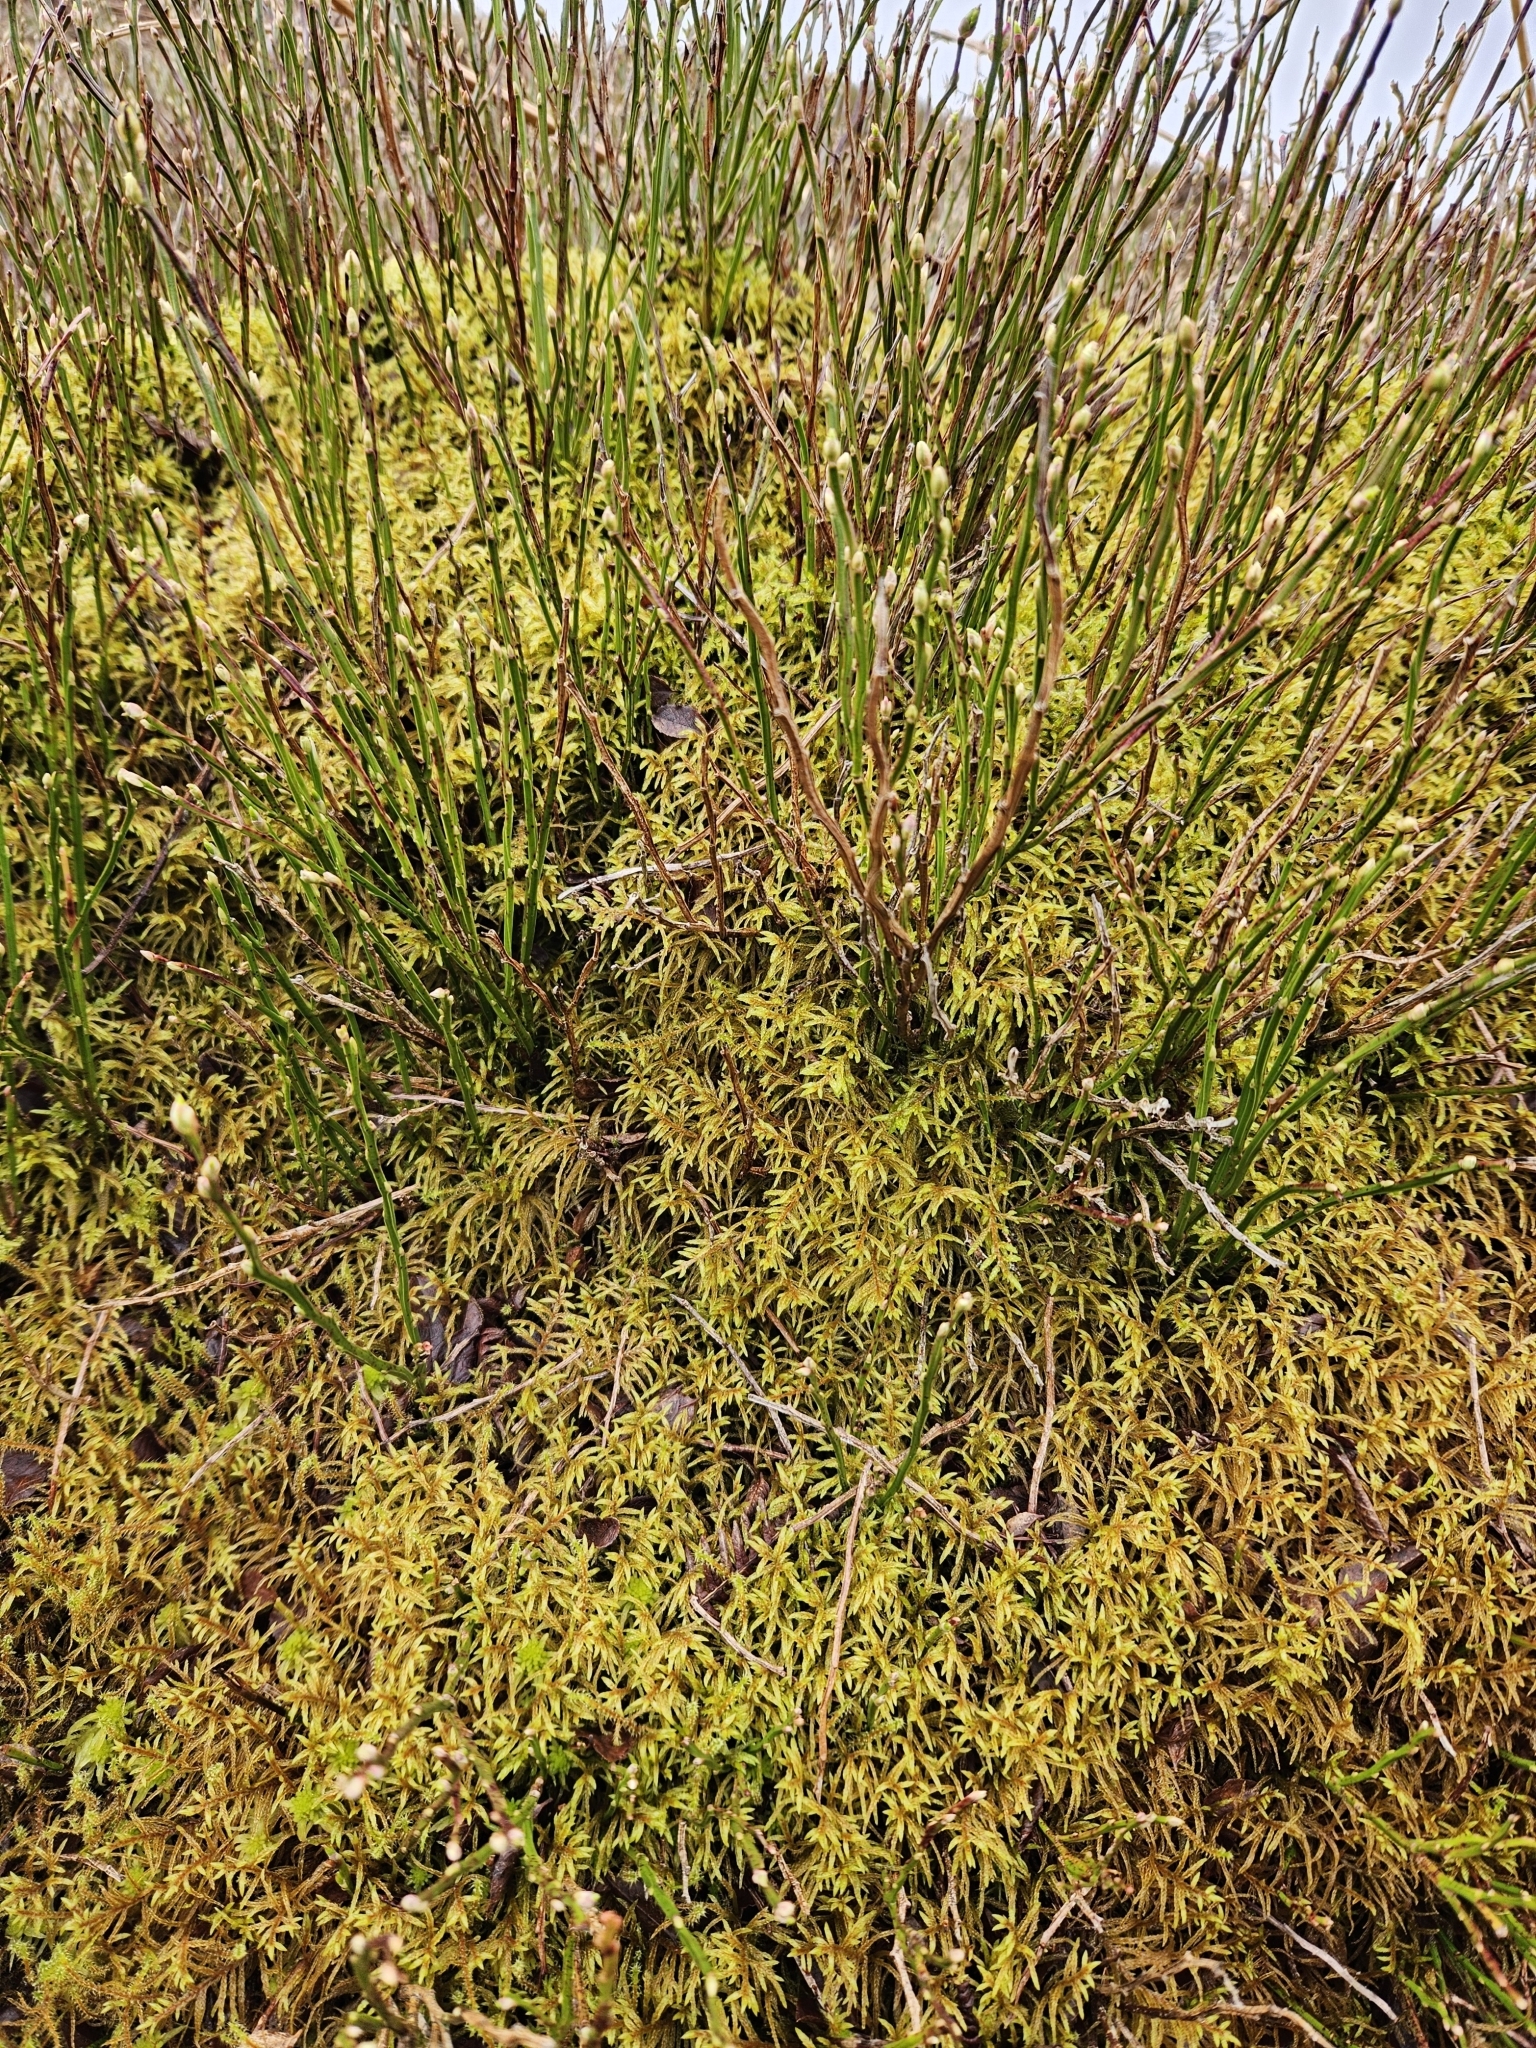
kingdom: Plantae
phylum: Bryophyta
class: Bryopsida
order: Hypnales
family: Hylocomiaceae
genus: Pleurozium
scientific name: Pleurozium schreberi
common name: Red-stemmed feather moss
